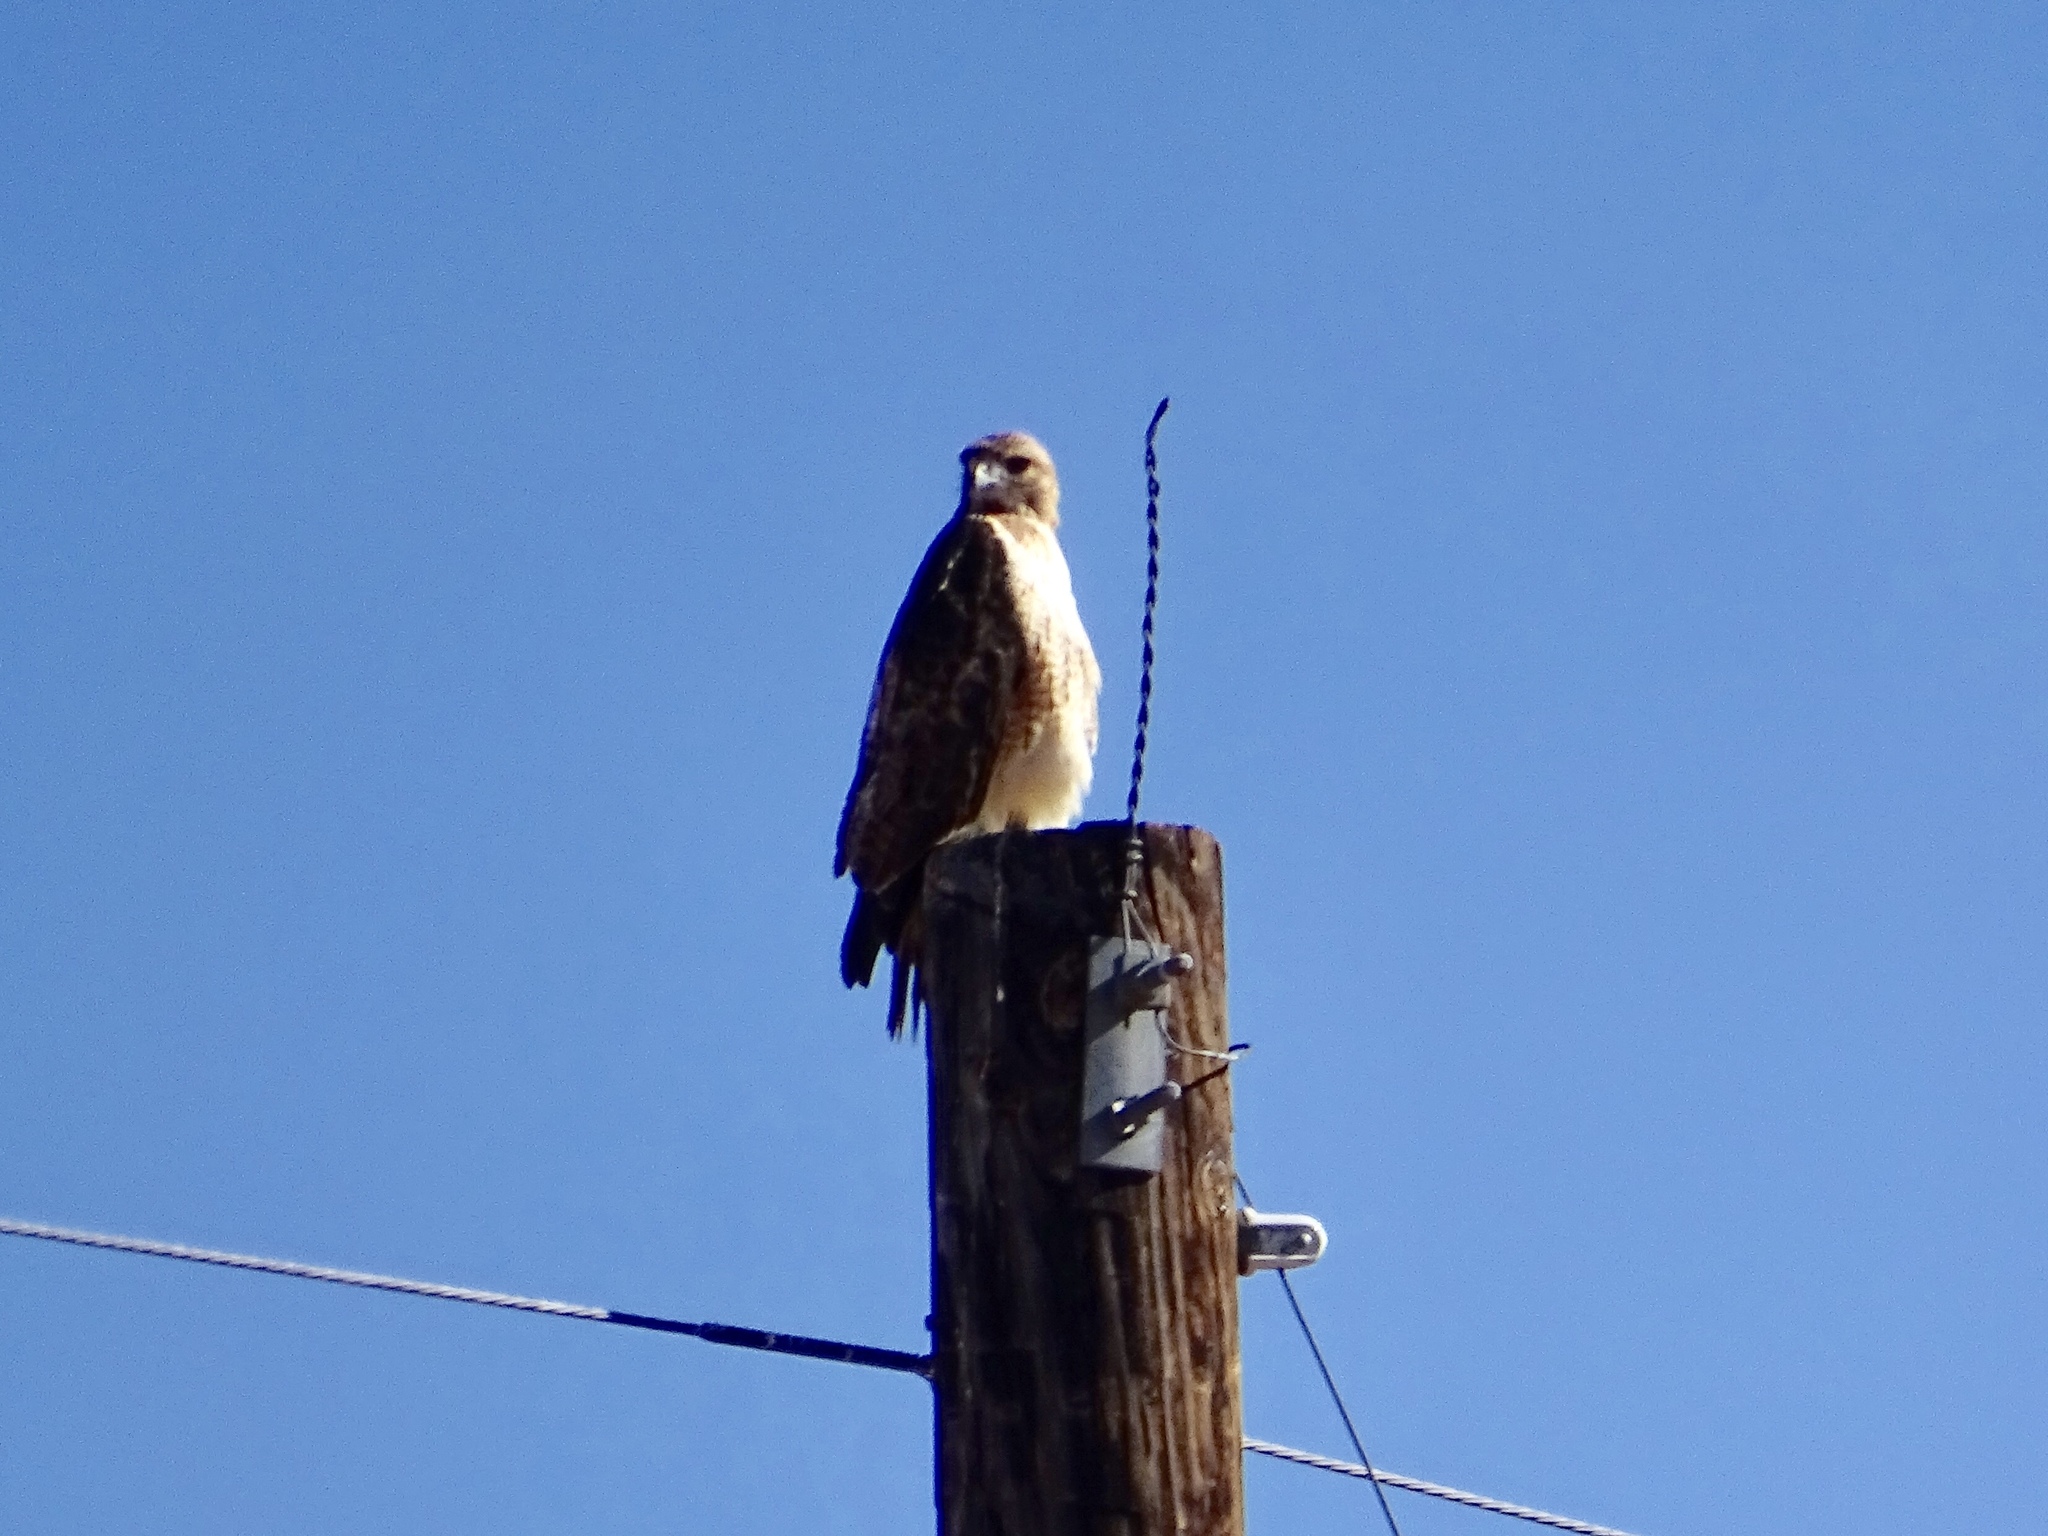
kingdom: Animalia
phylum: Chordata
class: Aves
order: Accipitriformes
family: Accipitridae
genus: Buteo
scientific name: Buteo jamaicensis
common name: Red-tailed hawk
